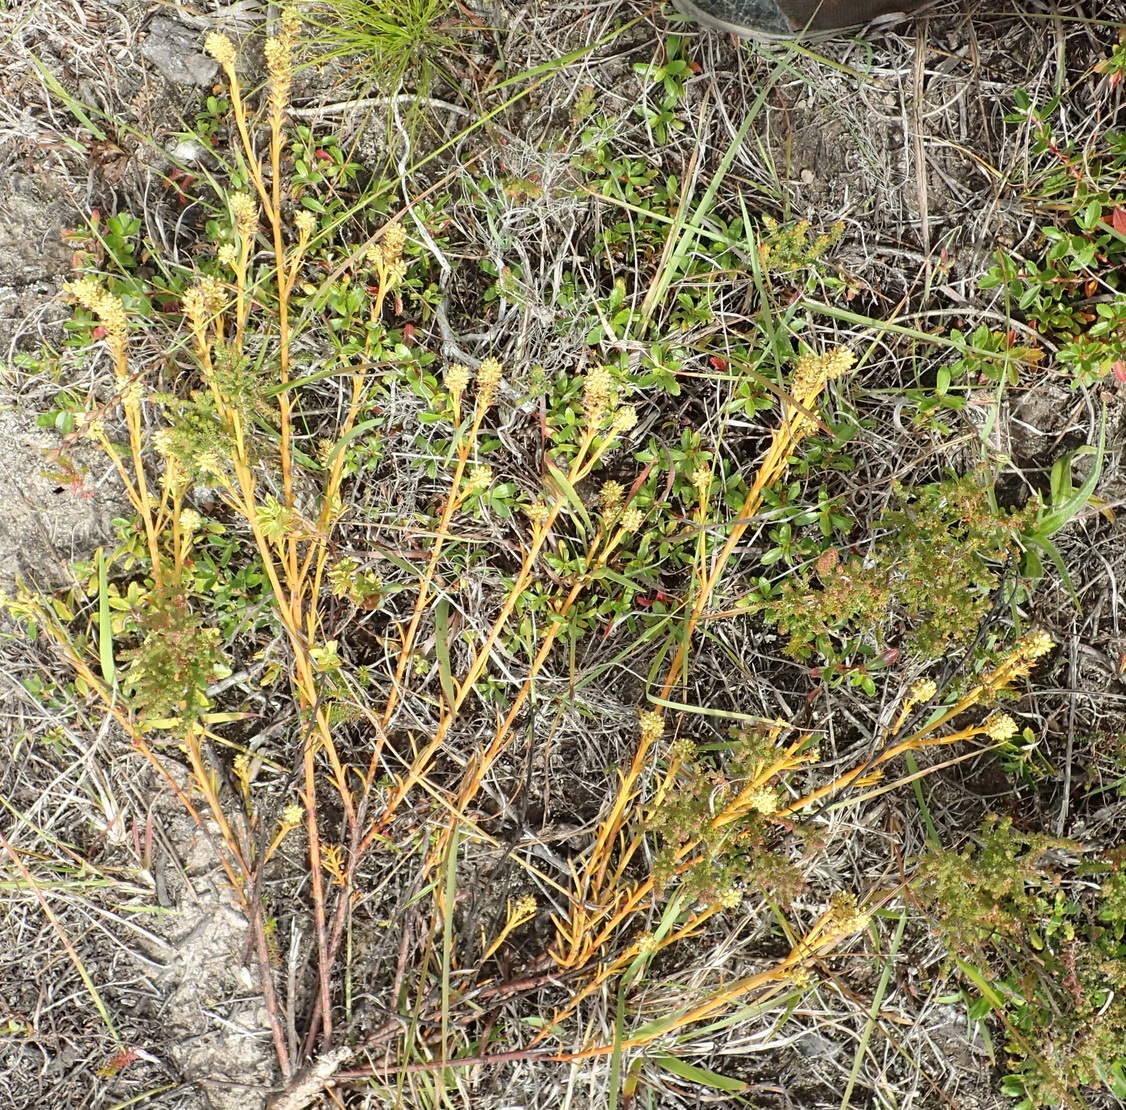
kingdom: Plantae
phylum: Tracheophyta
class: Magnoliopsida
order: Santalales
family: Thesiaceae
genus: Thesium
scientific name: Thesium spicatum
